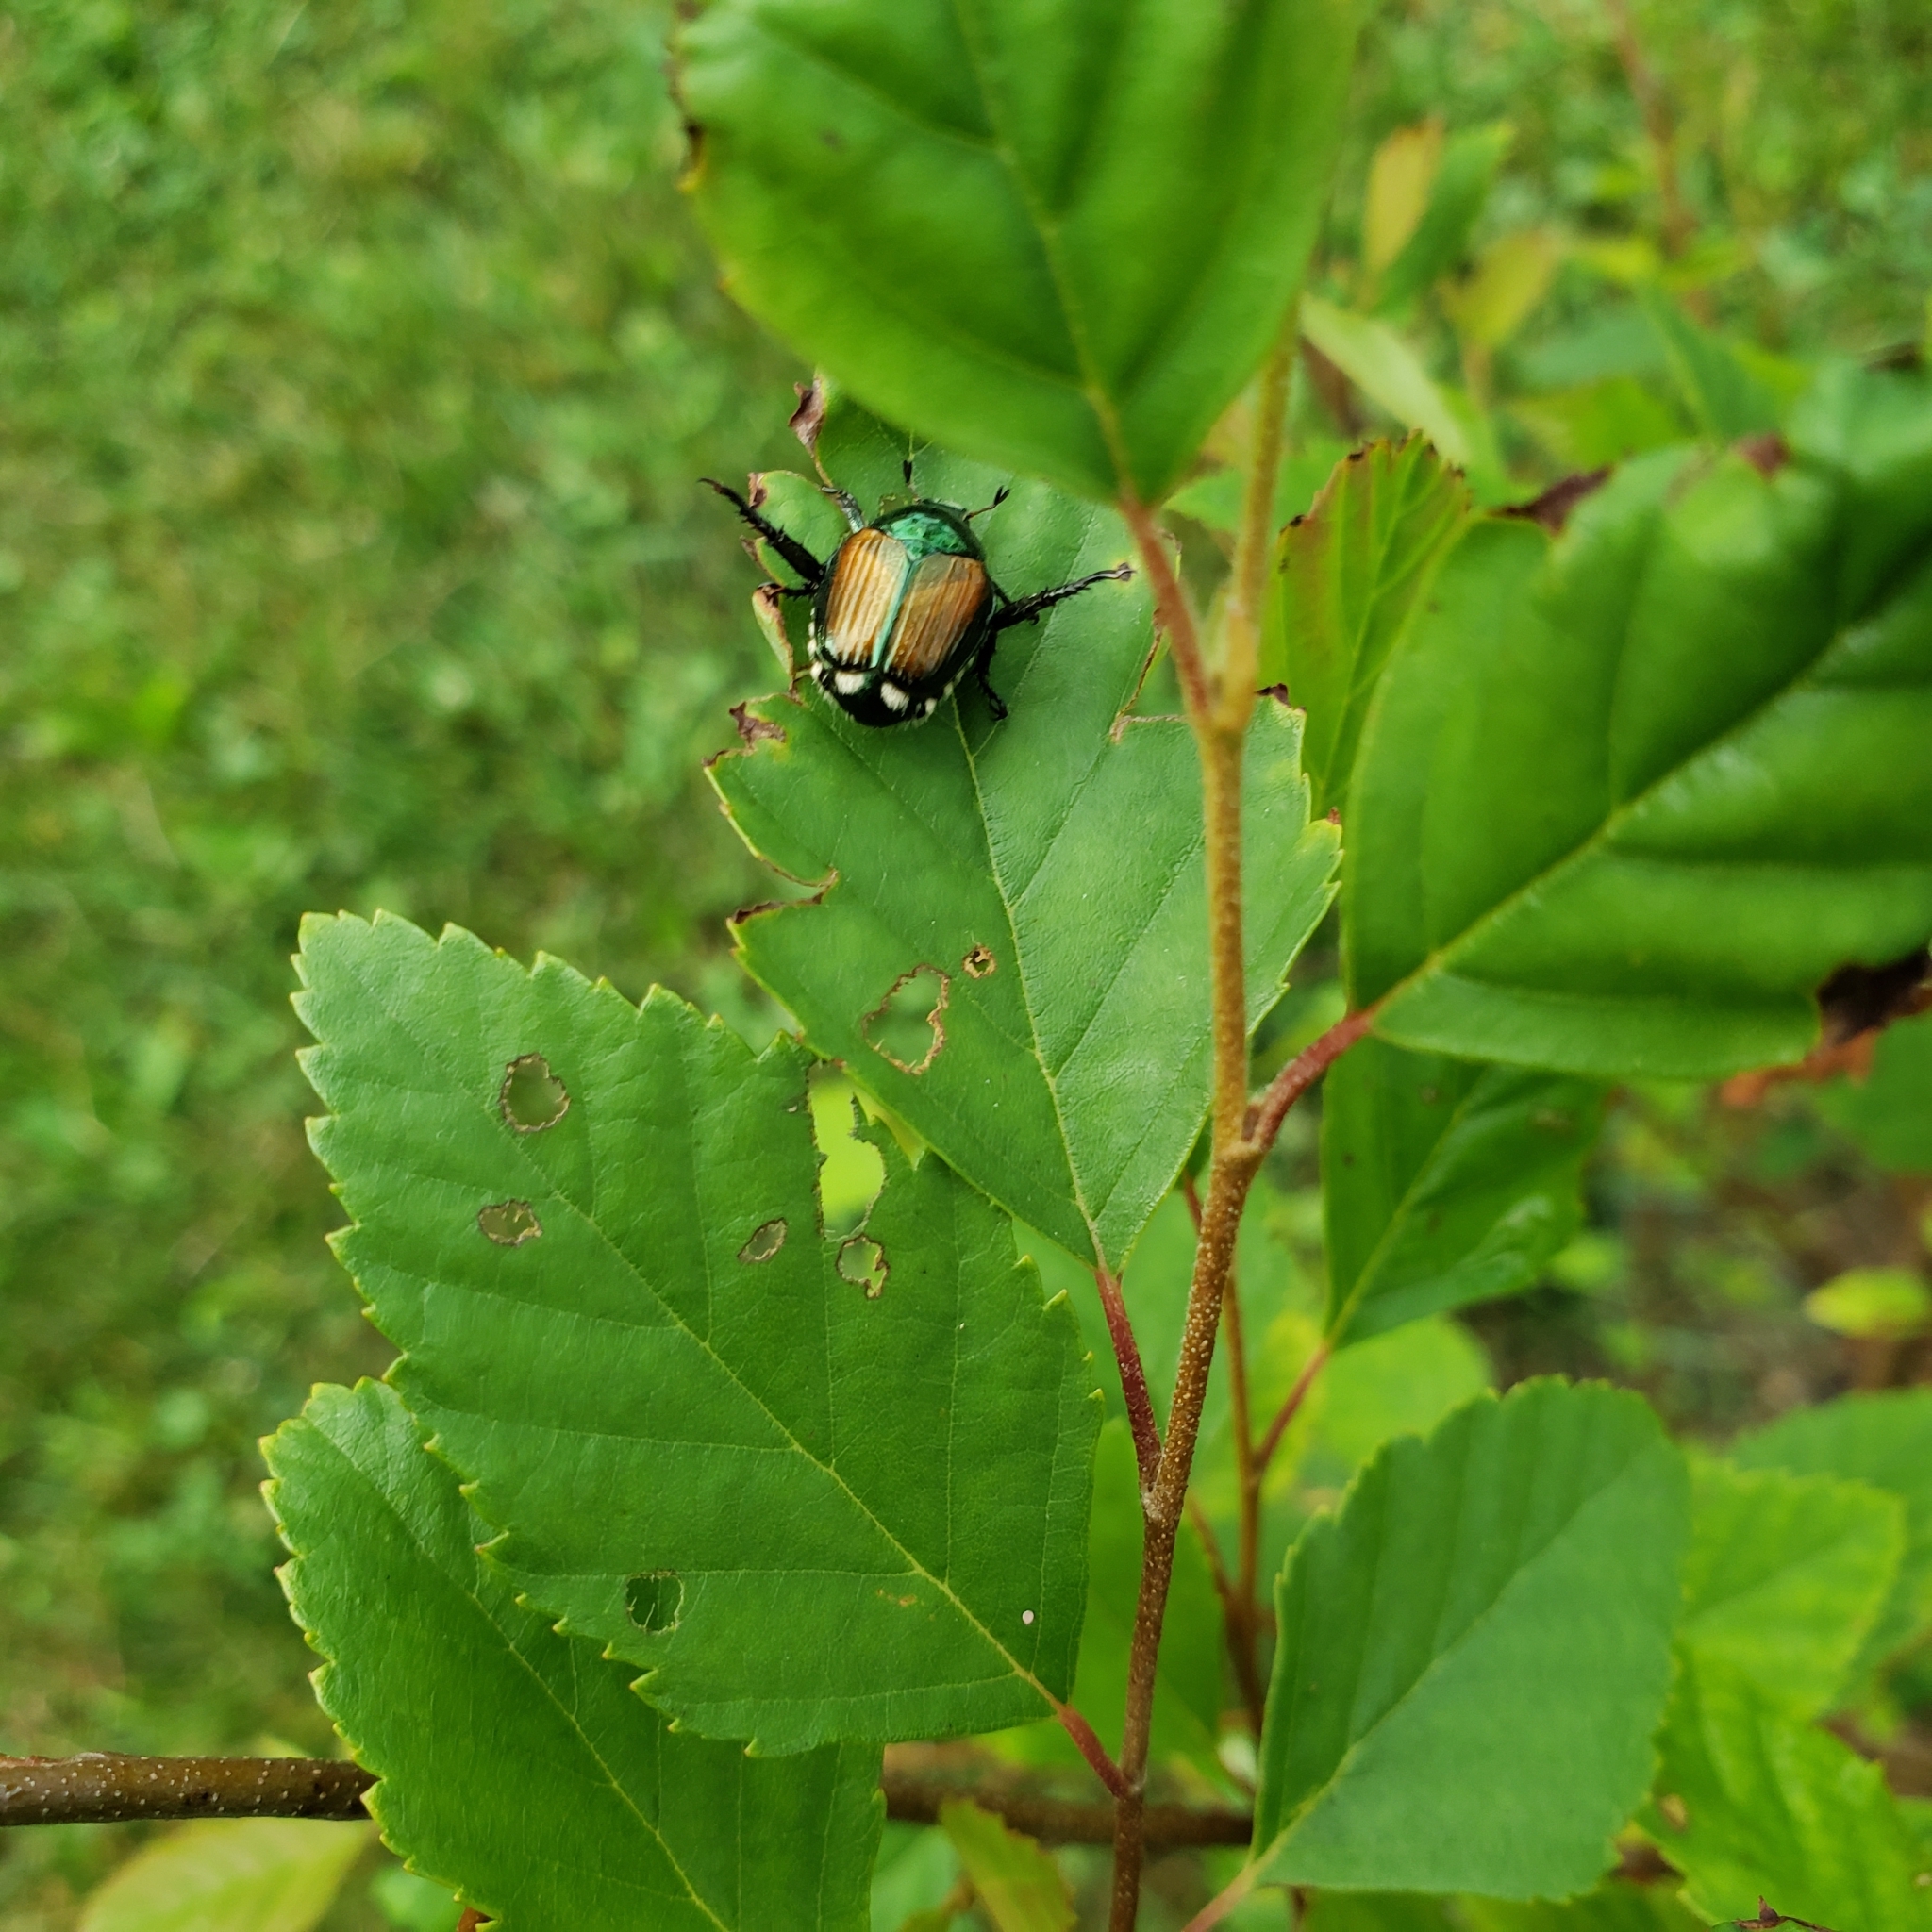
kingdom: Animalia
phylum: Arthropoda
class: Insecta
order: Coleoptera
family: Scarabaeidae
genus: Popillia
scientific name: Popillia japonica
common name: Japanese beetle
